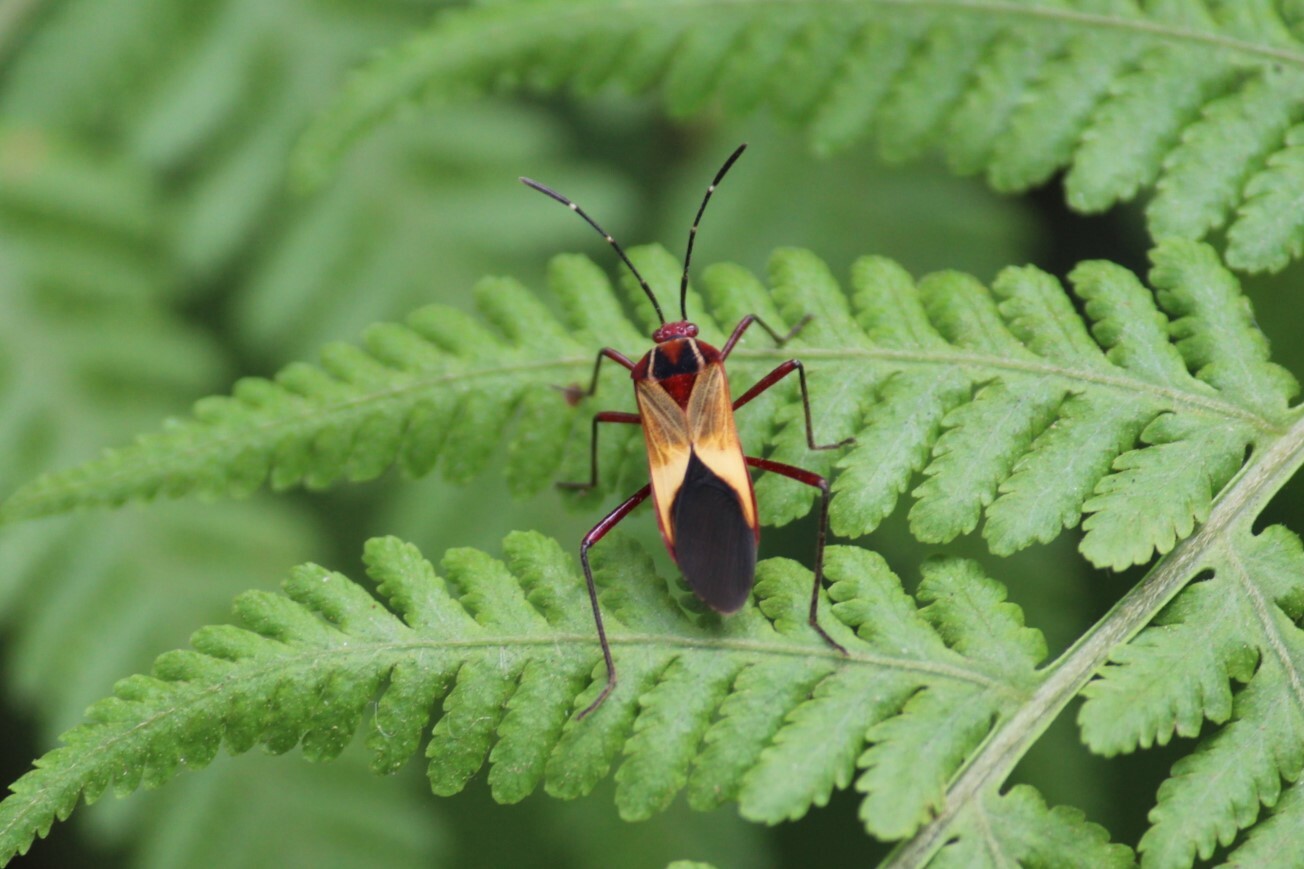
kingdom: Animalia
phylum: Arthropoda
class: Insecta
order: Hemiptera
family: Coreidae
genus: Hypselonotus
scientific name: Hypselonotus interruptus
